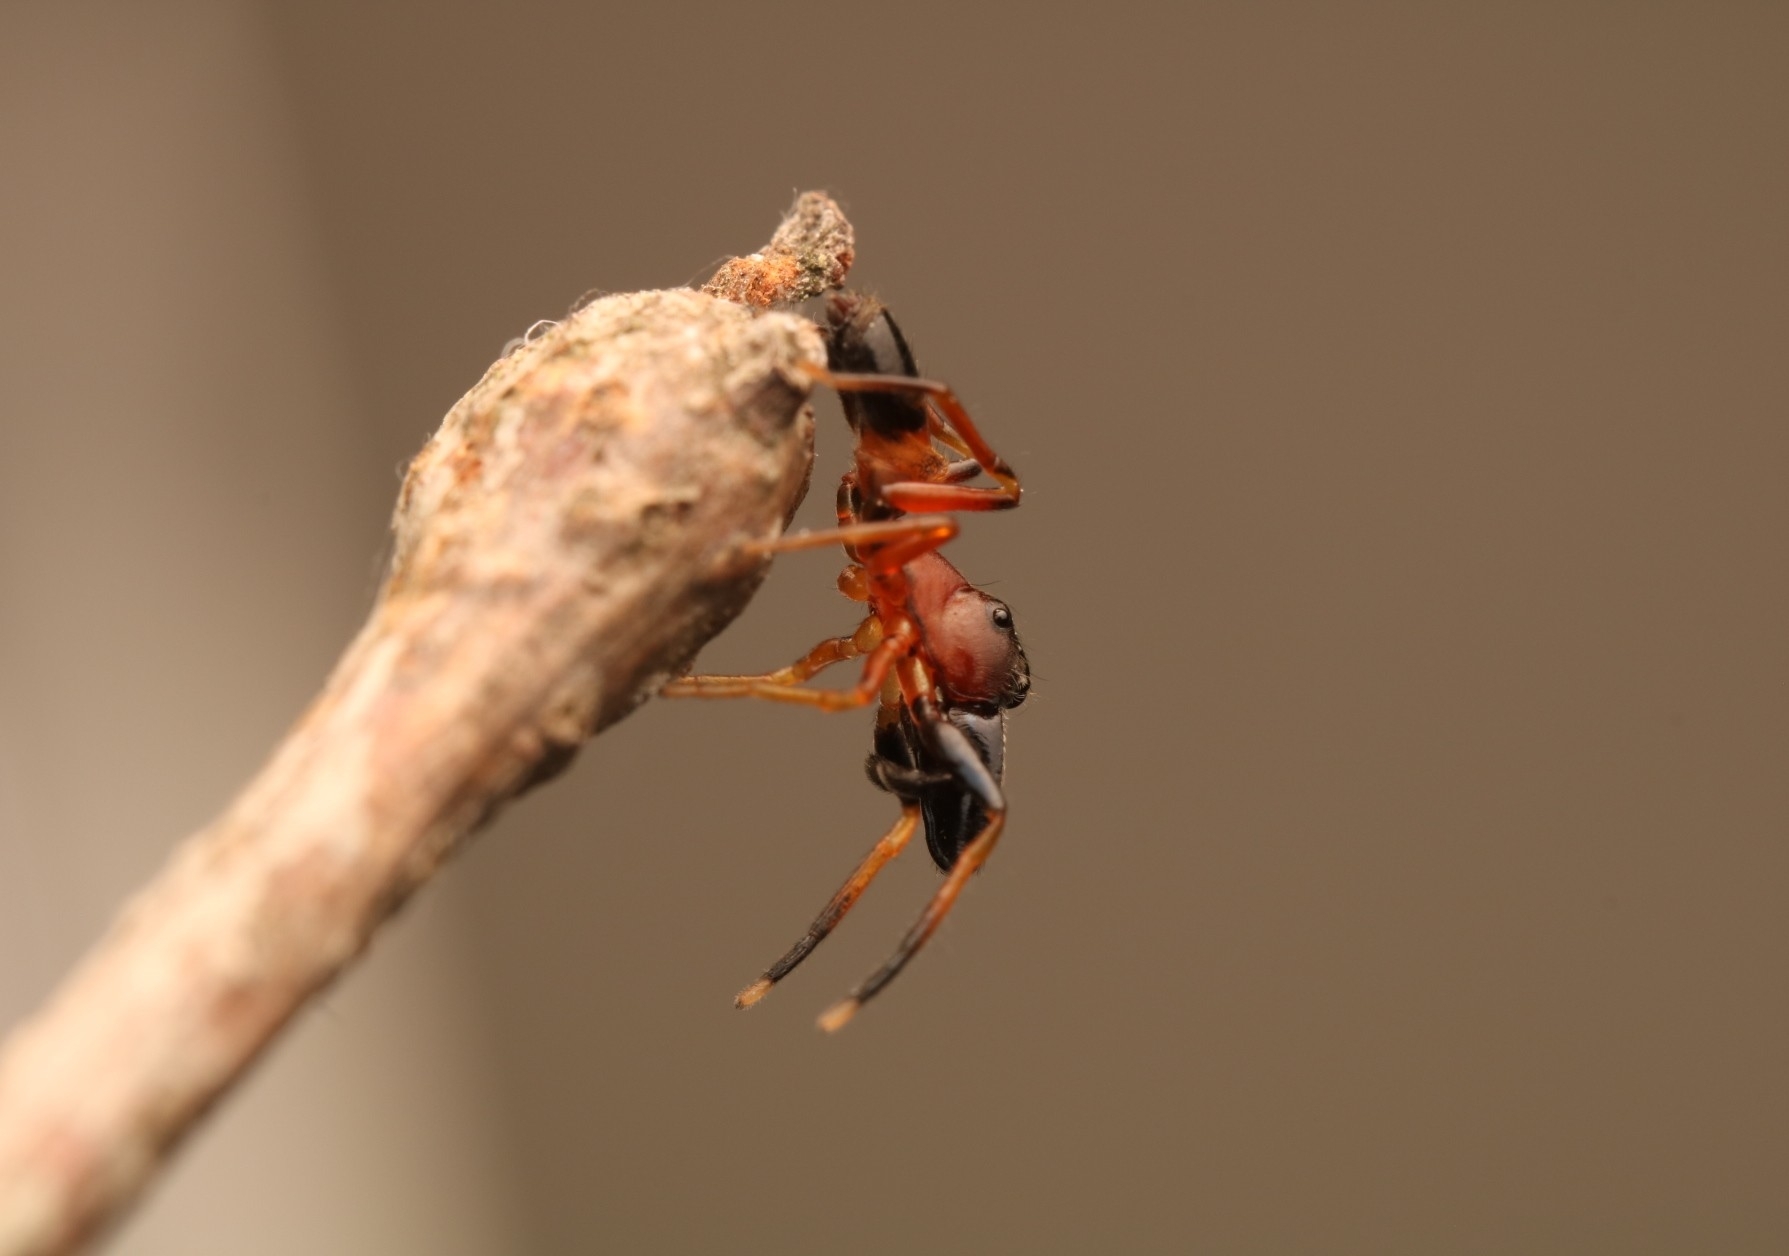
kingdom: Animalia
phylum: Arthropoda
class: Arachnida
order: Araneae
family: Salticidae
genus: Myrmarachne
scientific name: Myrmarachne formicaria
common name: Ant mimic jumping spider
